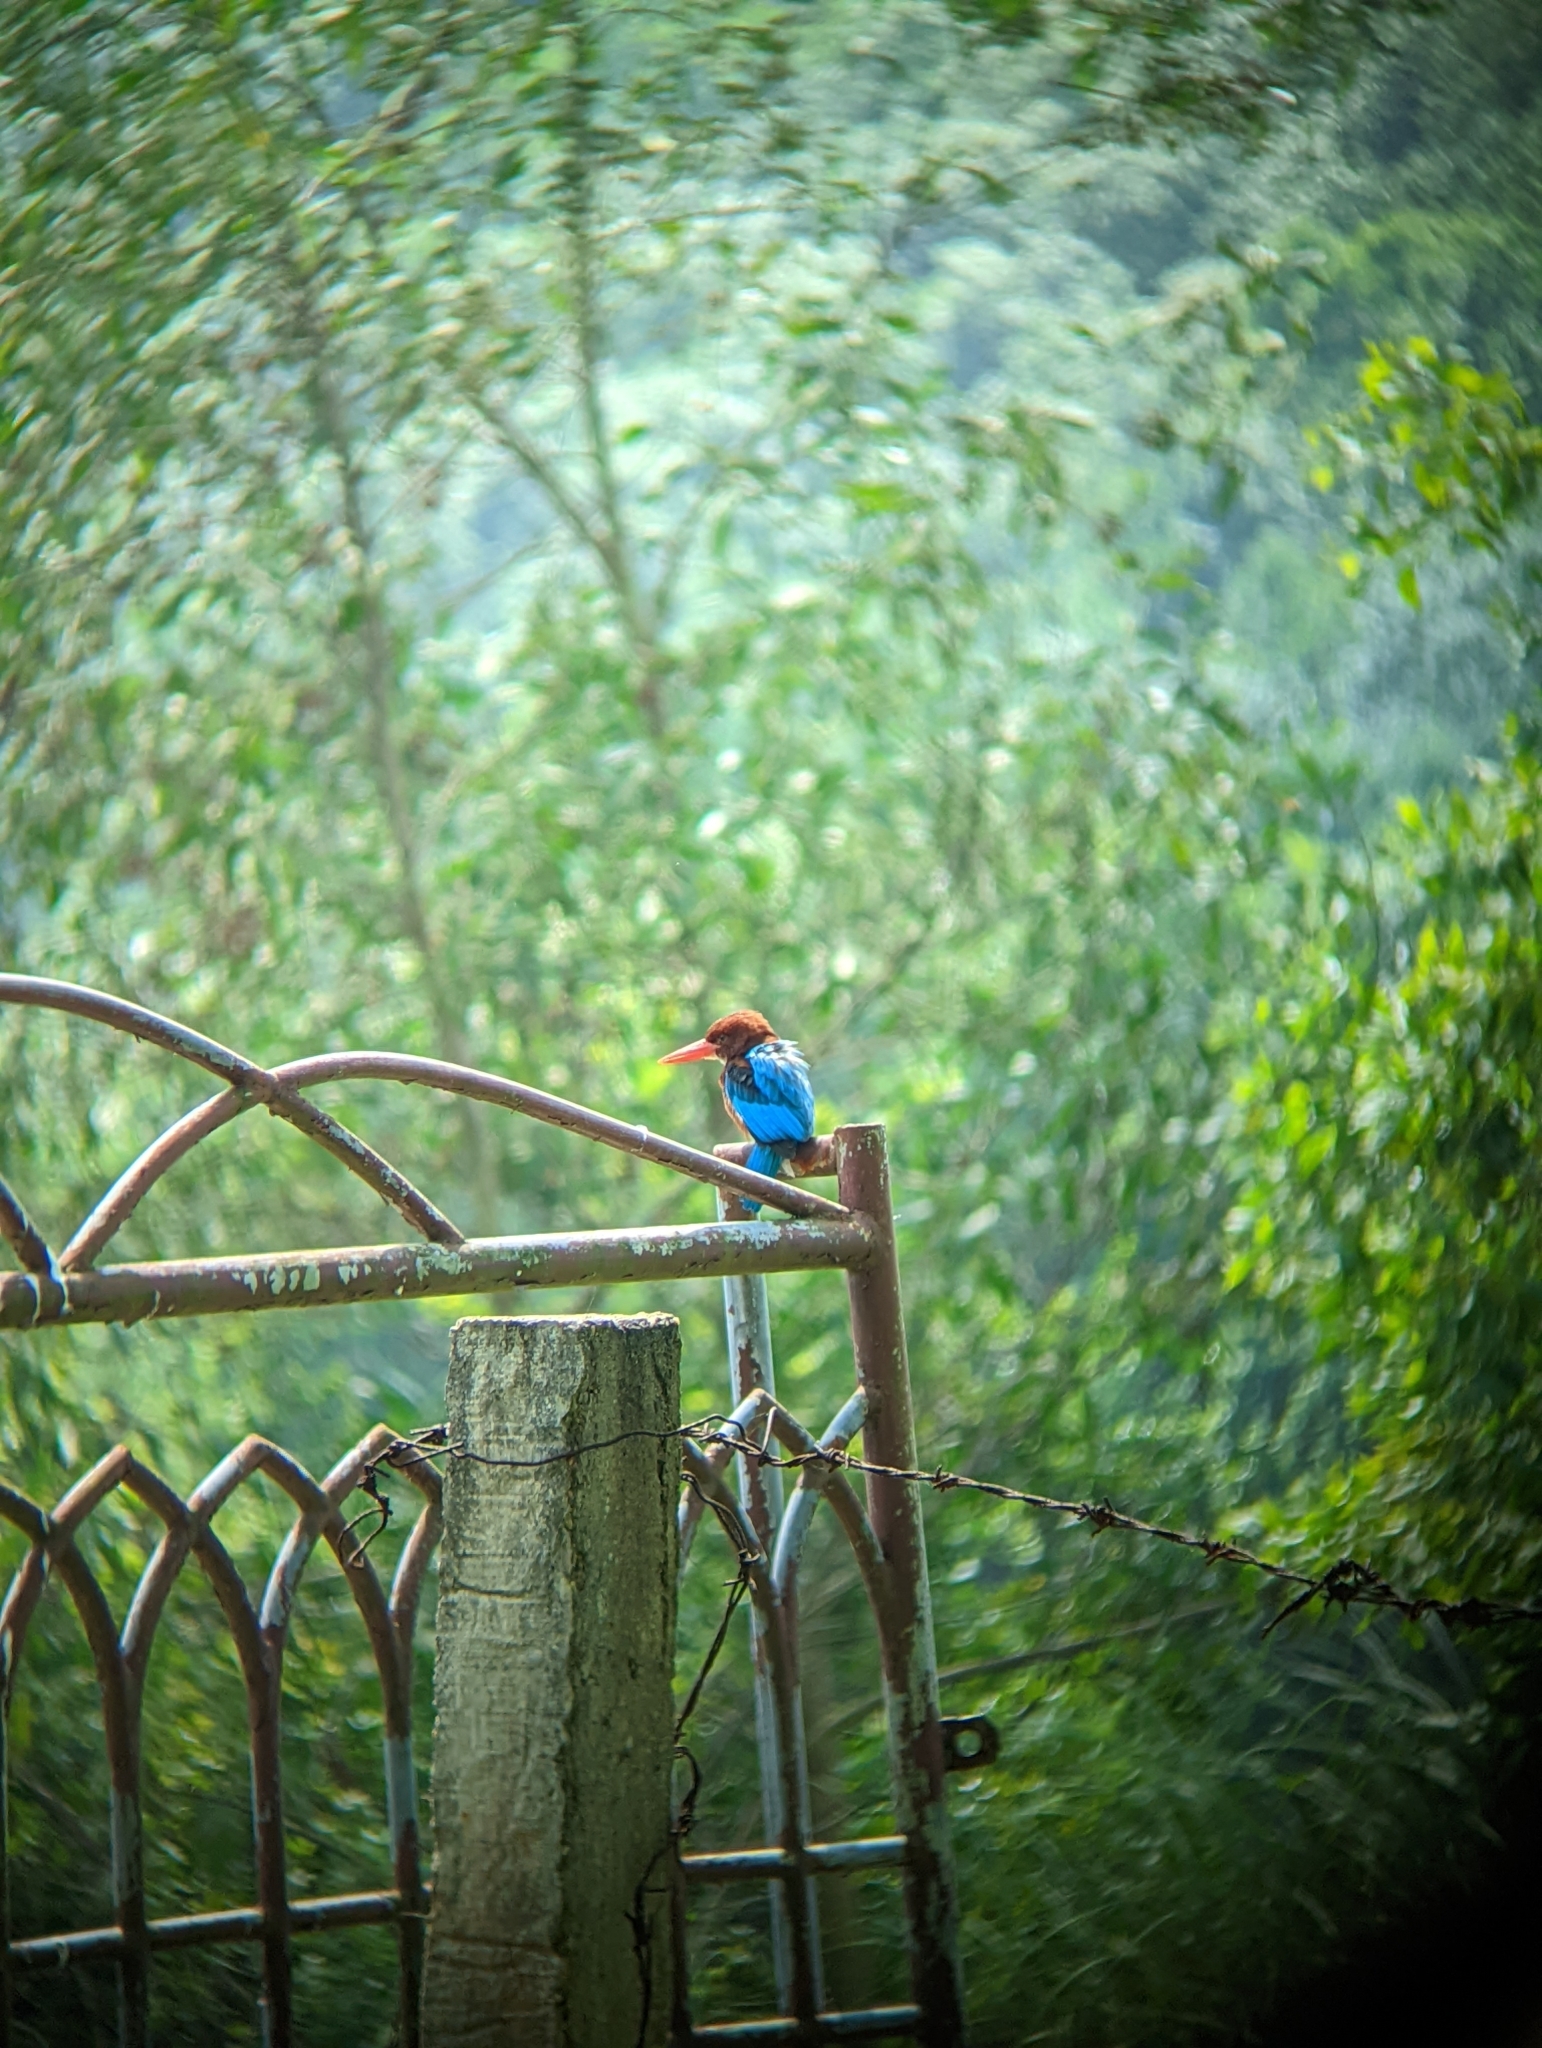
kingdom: Animalia
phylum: Chordata
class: Aves
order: Coraciiformes
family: Alcedinidae
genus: Halcyon
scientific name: Halcyon smyrnensis
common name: White-throated kingfisher
